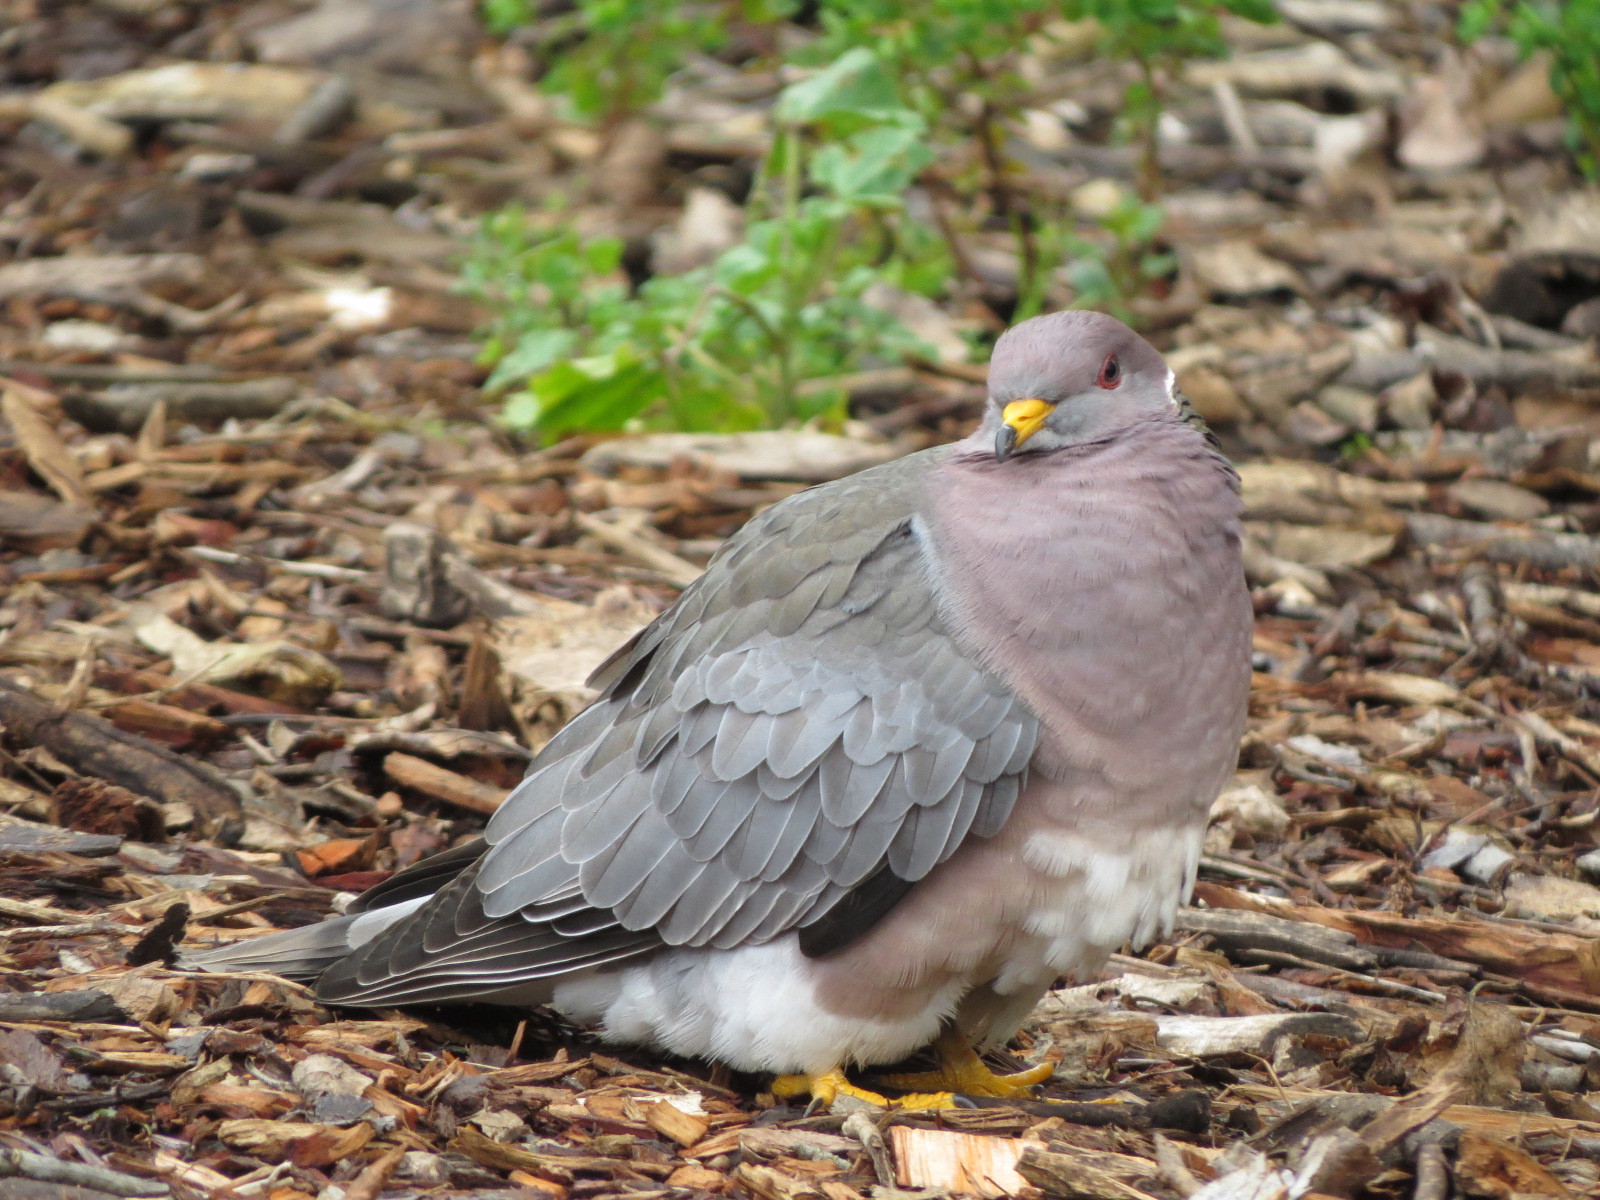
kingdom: Animalia
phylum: Chordata
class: Aves
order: Columbiformes
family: Columbidae
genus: Patagioenas
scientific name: Patagioenas fasciata
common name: Band-tailed pigeon
